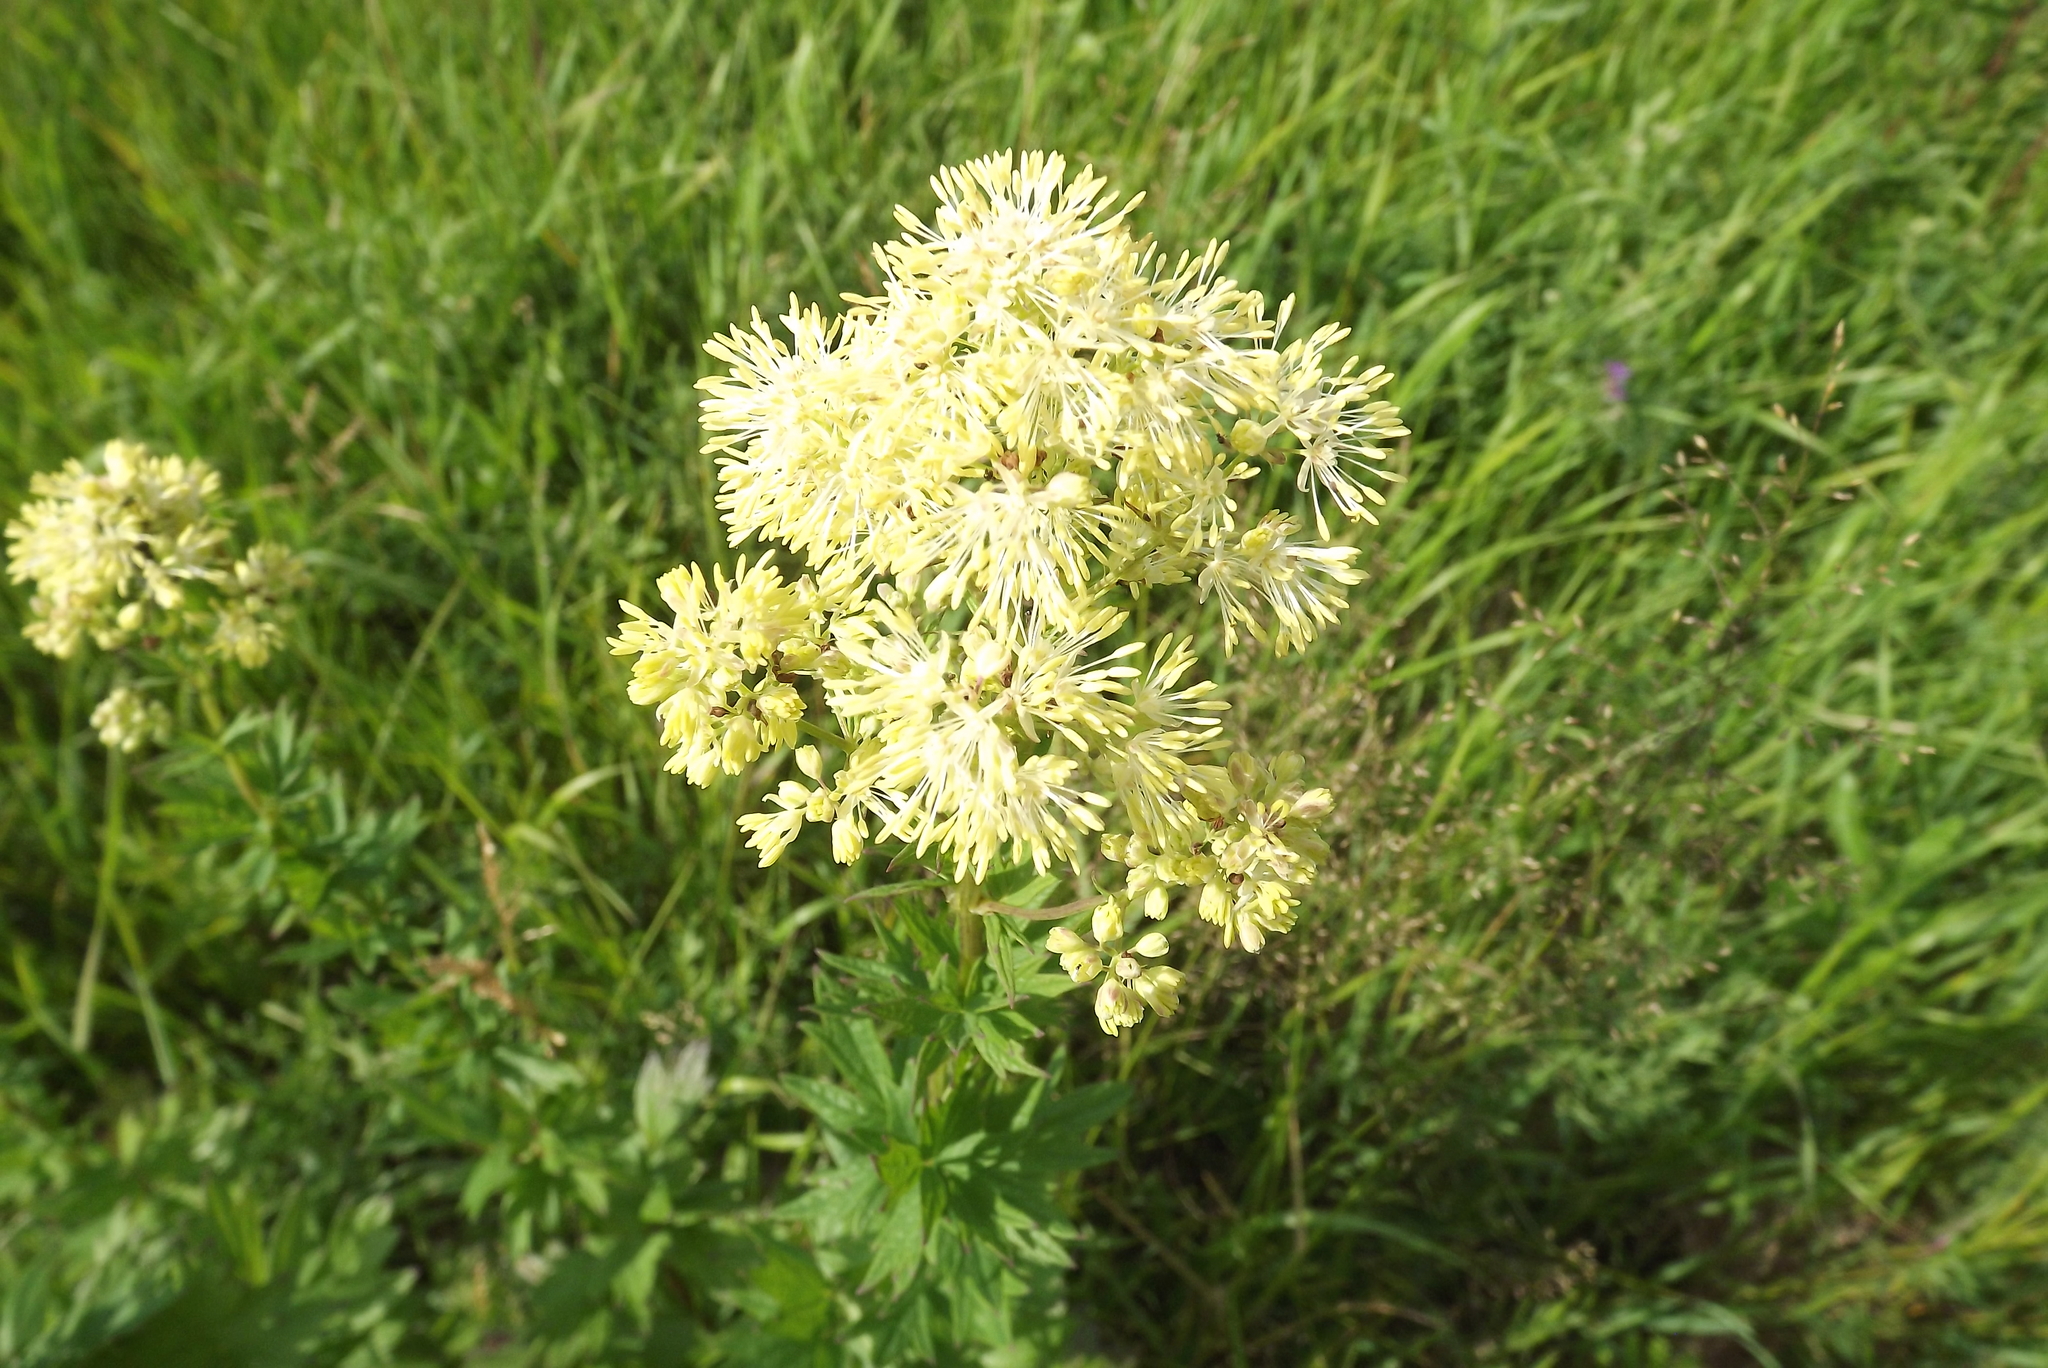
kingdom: Plantae
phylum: Tracheophyta
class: Magnoliopsida
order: Ranunculales
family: Ranunculaceae
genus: Thalictrum
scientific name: Thalictrum flavum
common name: Common meadow-rue
